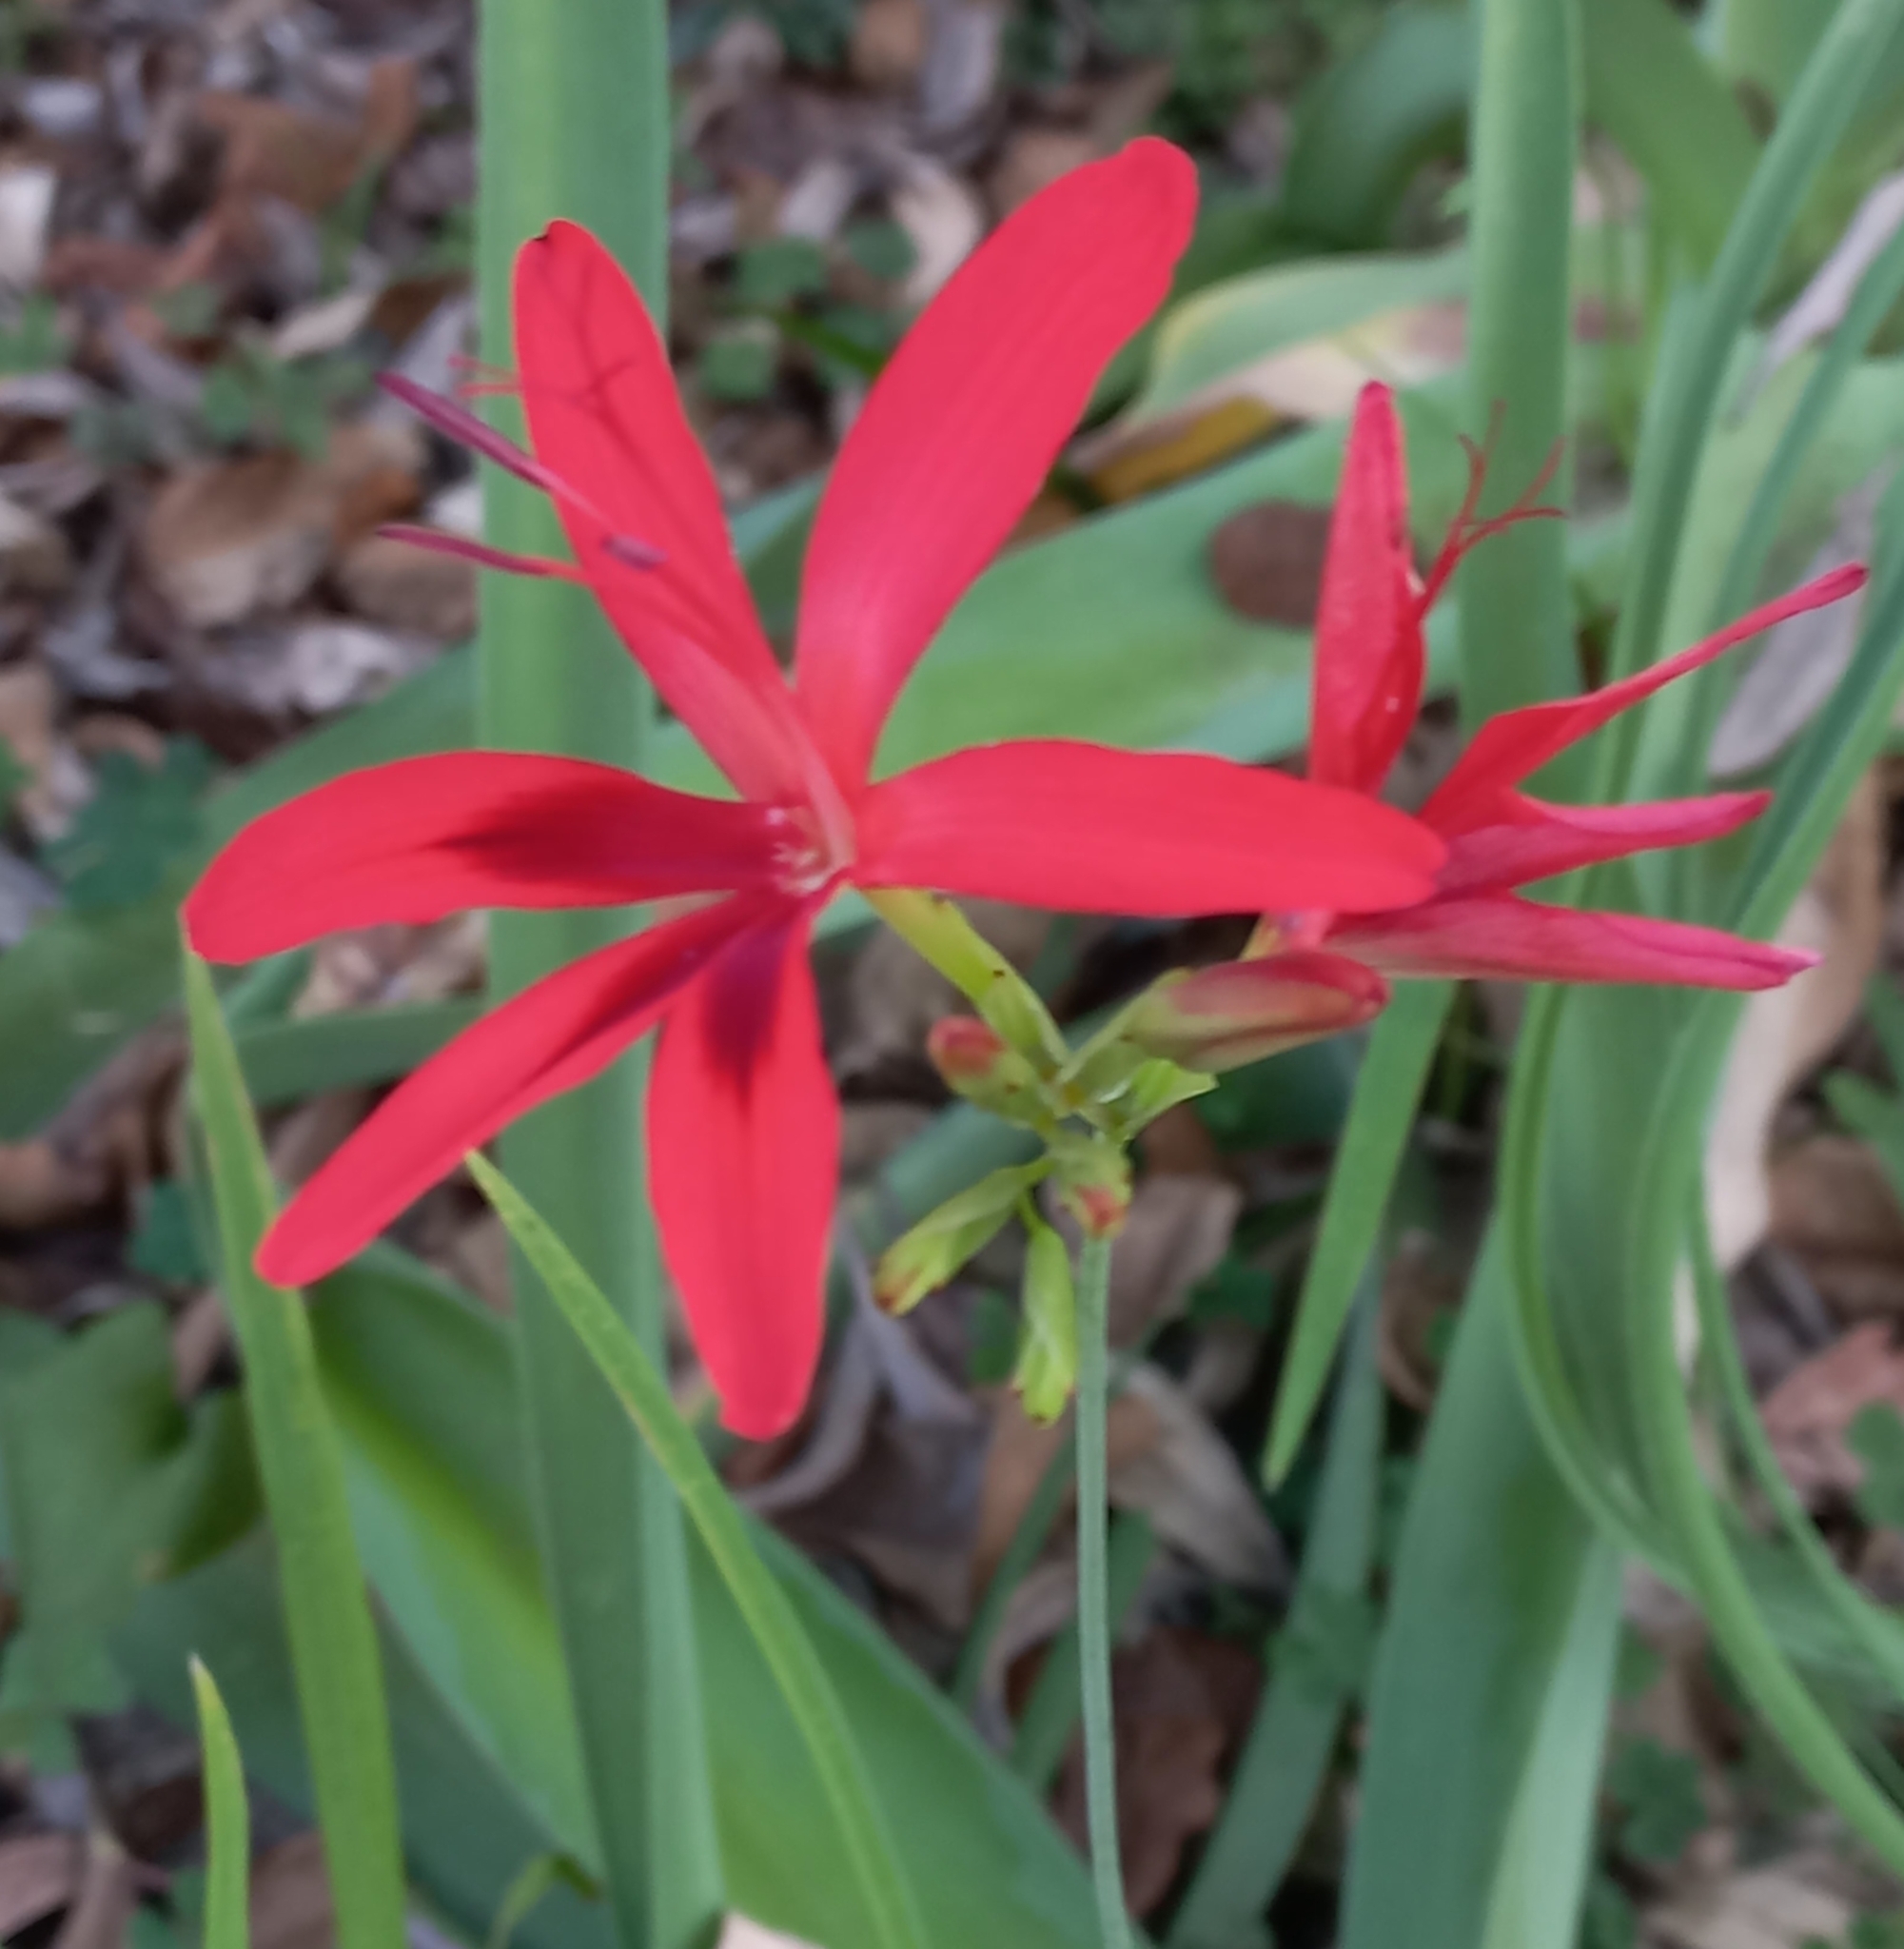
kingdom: Plantae
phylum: Tracheophyta
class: Liliopsida
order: Asparagales
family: Iridaceae
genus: Freesia
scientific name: Freesia grandiflora
